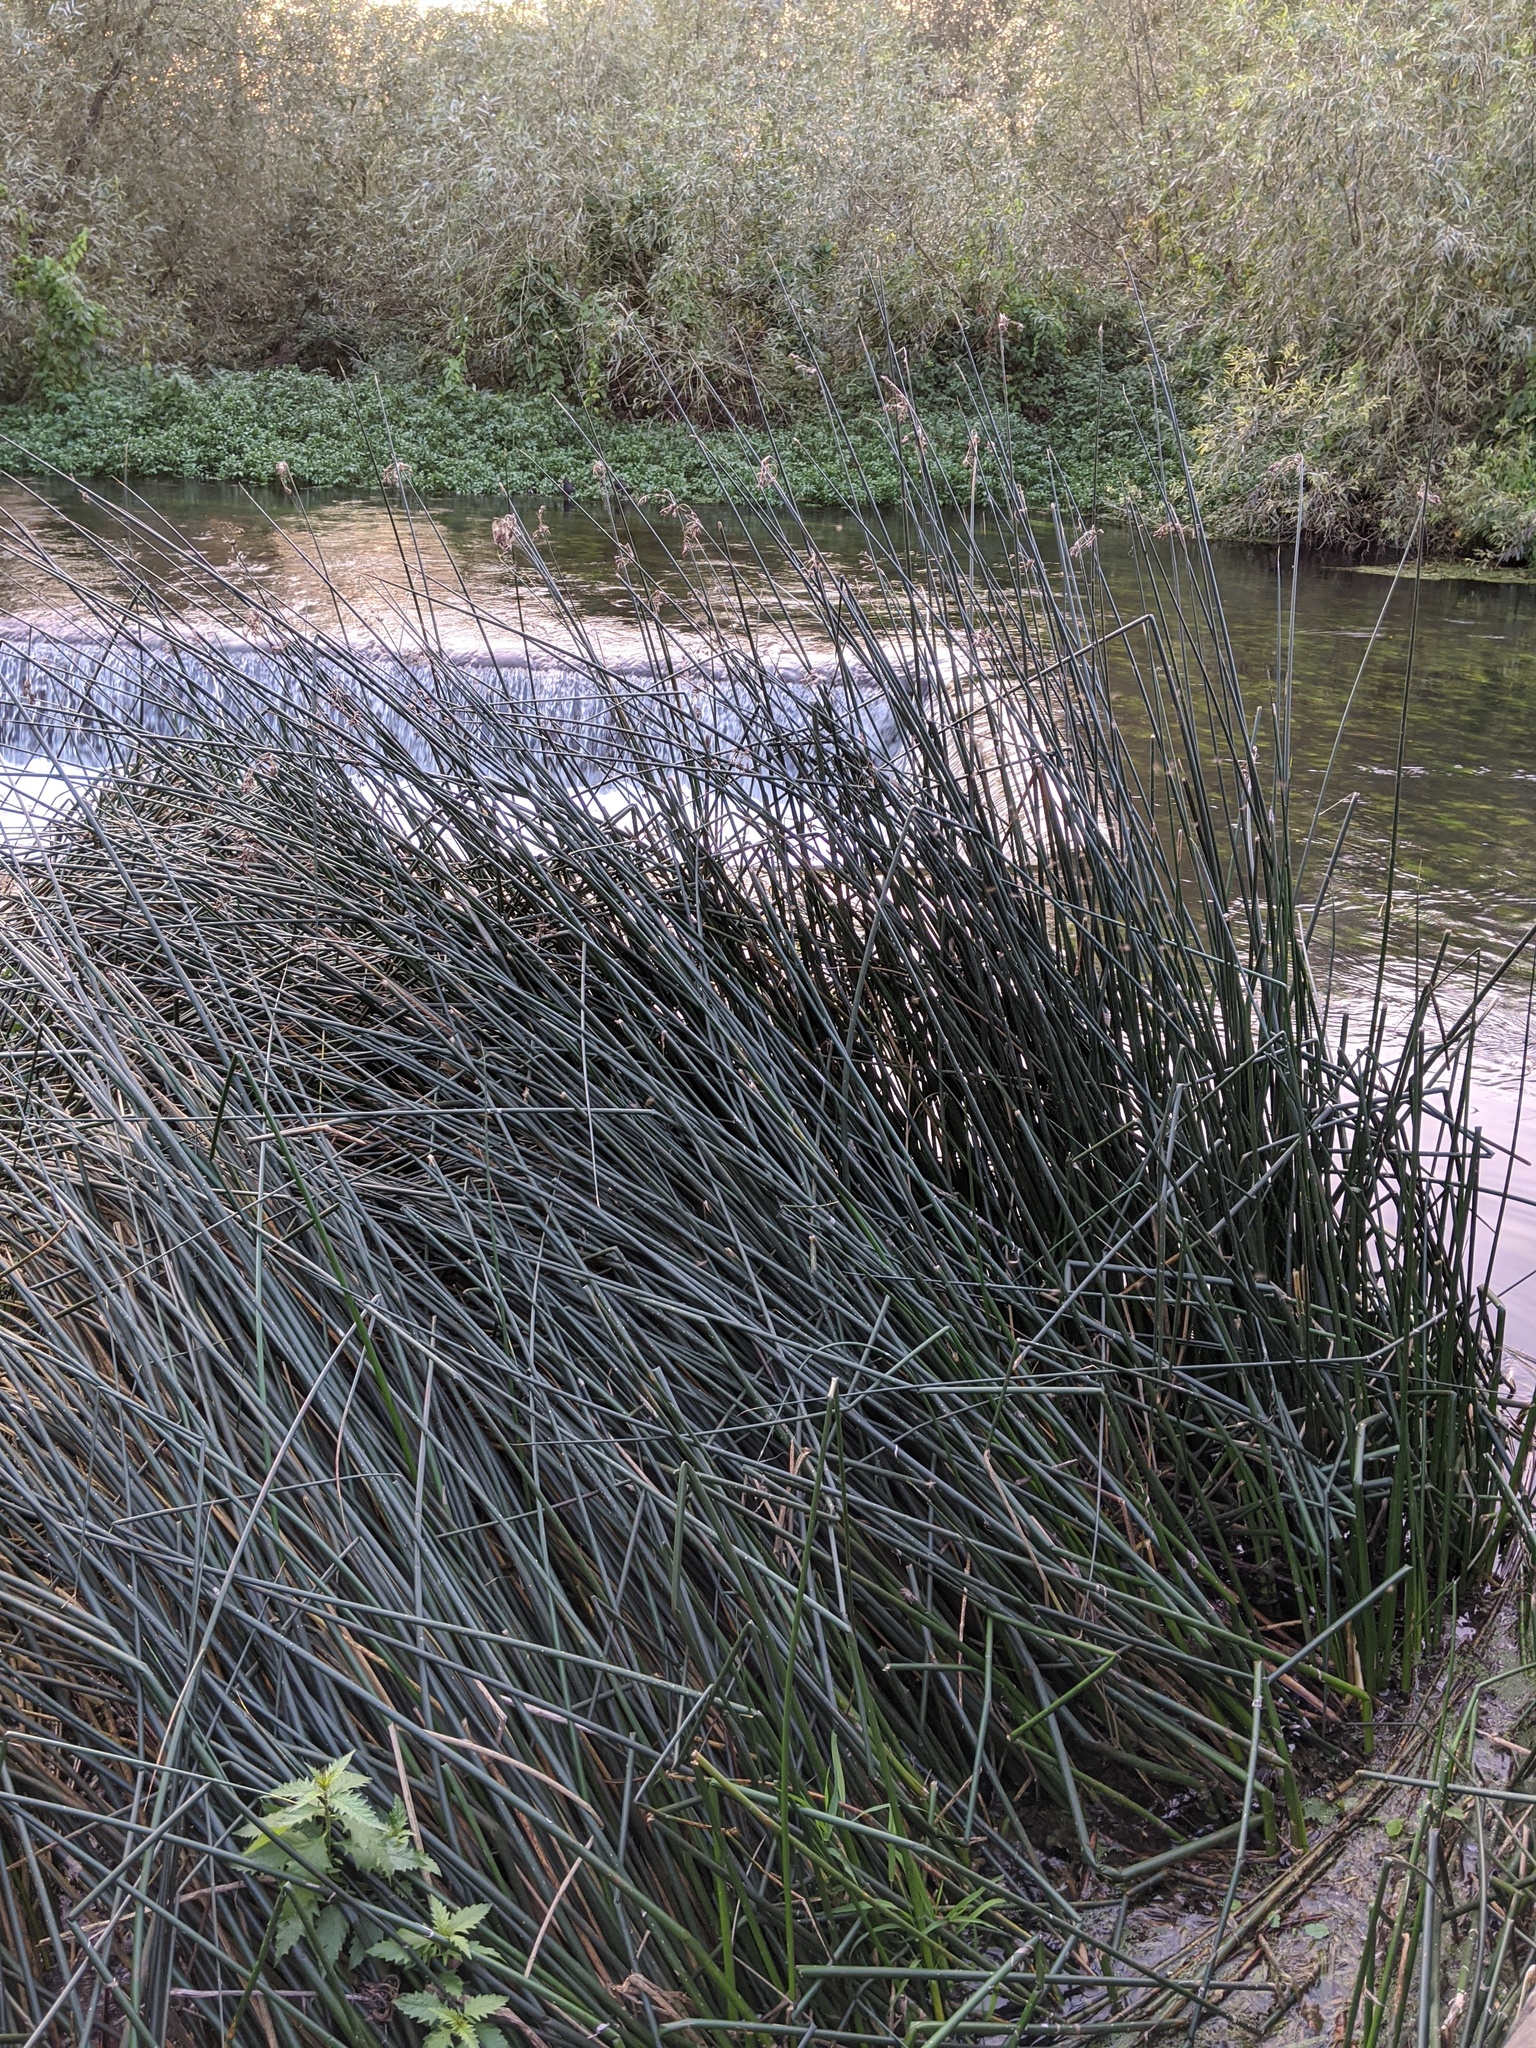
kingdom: Plantae
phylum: Tracheophyta
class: Liliopsida
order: Poales
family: Cyperaceae
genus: Schoenoplectus
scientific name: Schoenoplectus lacustris
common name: Common club-rush
